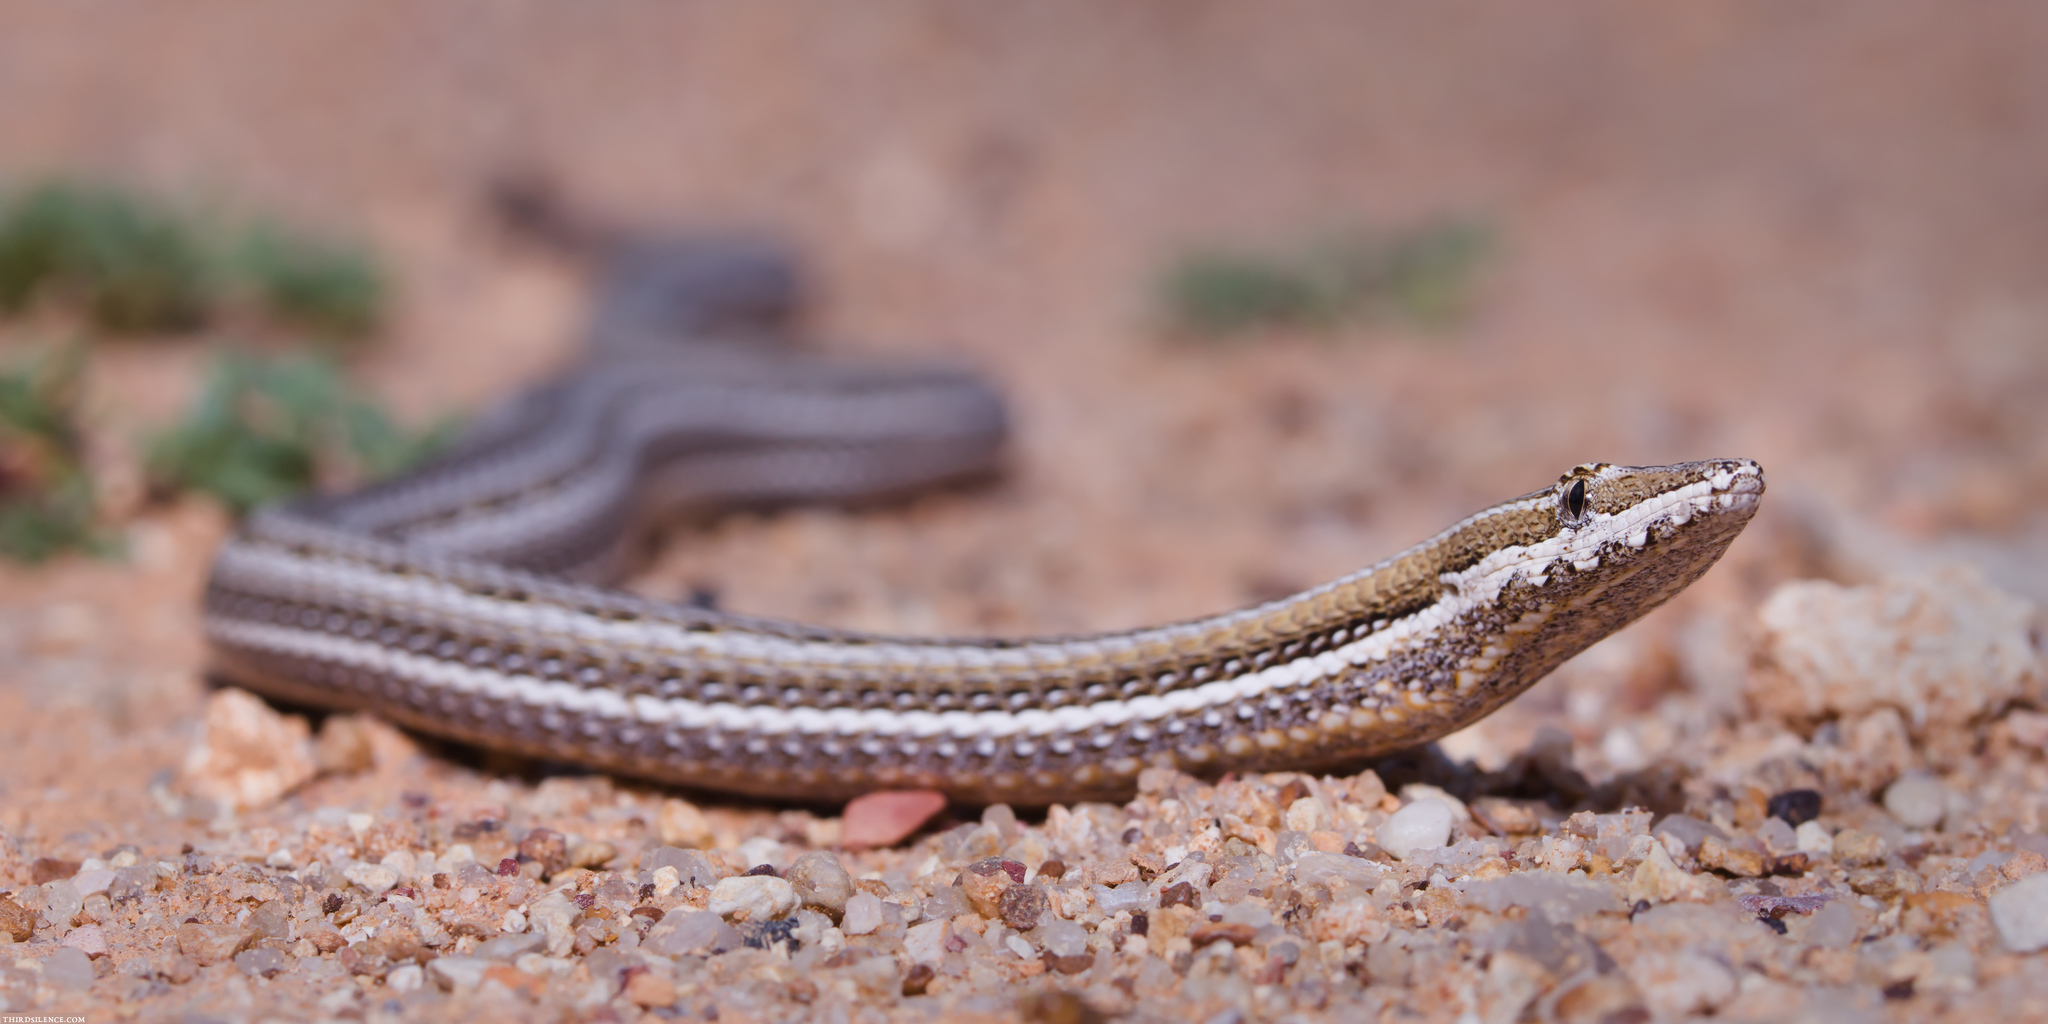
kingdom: Animalia
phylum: Chordata
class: Squamata
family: Pygopodidae
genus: Lialis
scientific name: Lialis burtonis
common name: Burton's legless lizard
